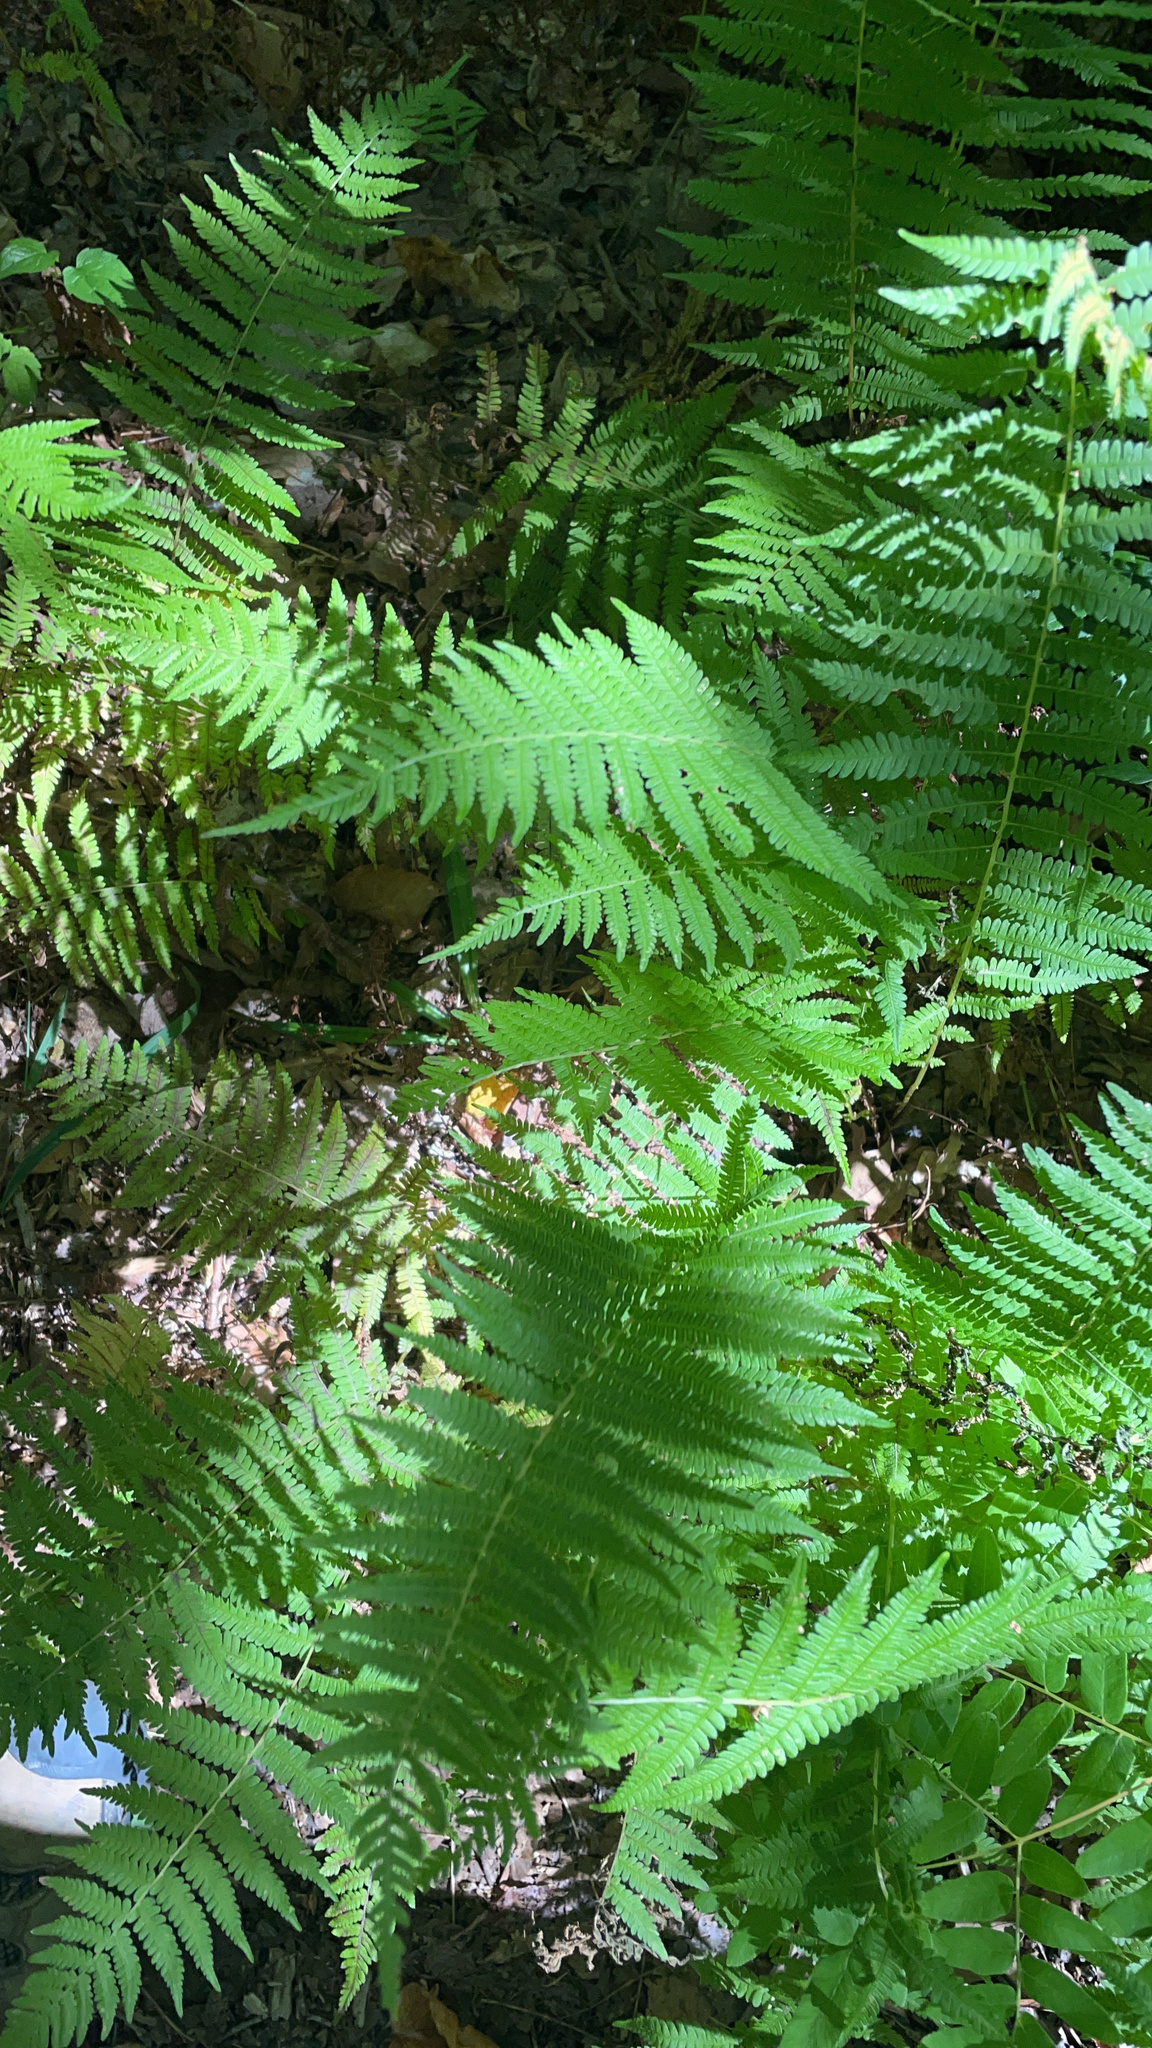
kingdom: Plantae
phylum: Tracheophyta
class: Polypodiopsida
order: Polypodiales
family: Thelypteridaceae
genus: Amauropelta
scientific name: Amauropelta noveboracensis
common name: New york fern
